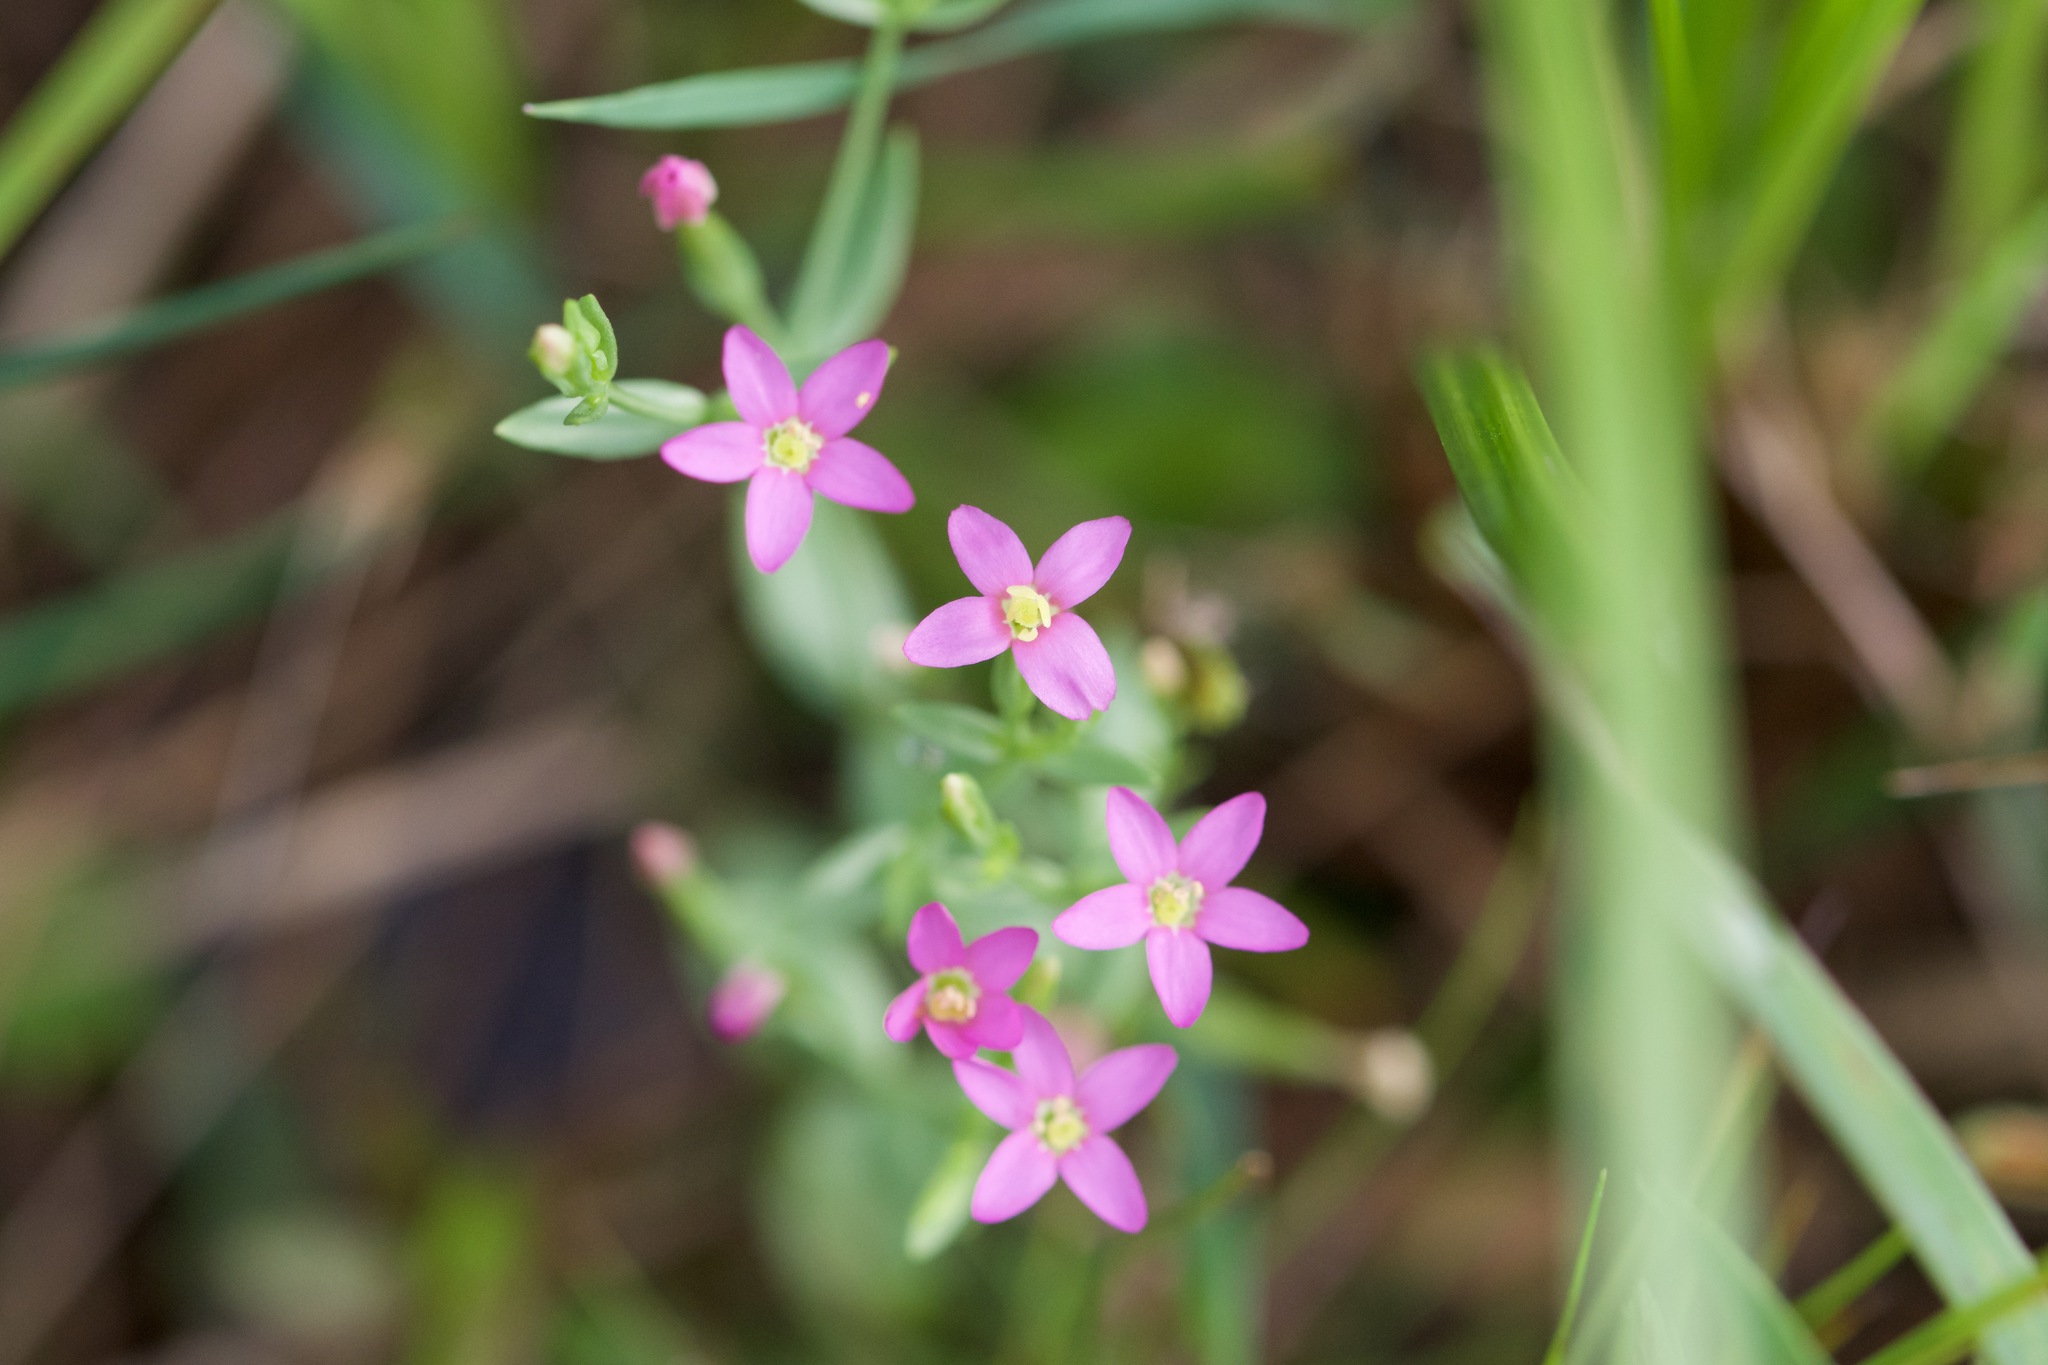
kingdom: Plantae
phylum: Tracheophyta
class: Magnoliopsida
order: Gentianales
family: Gentianaceae
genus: Centaurium
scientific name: Centaurium pulchellum
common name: Lesser centaury
